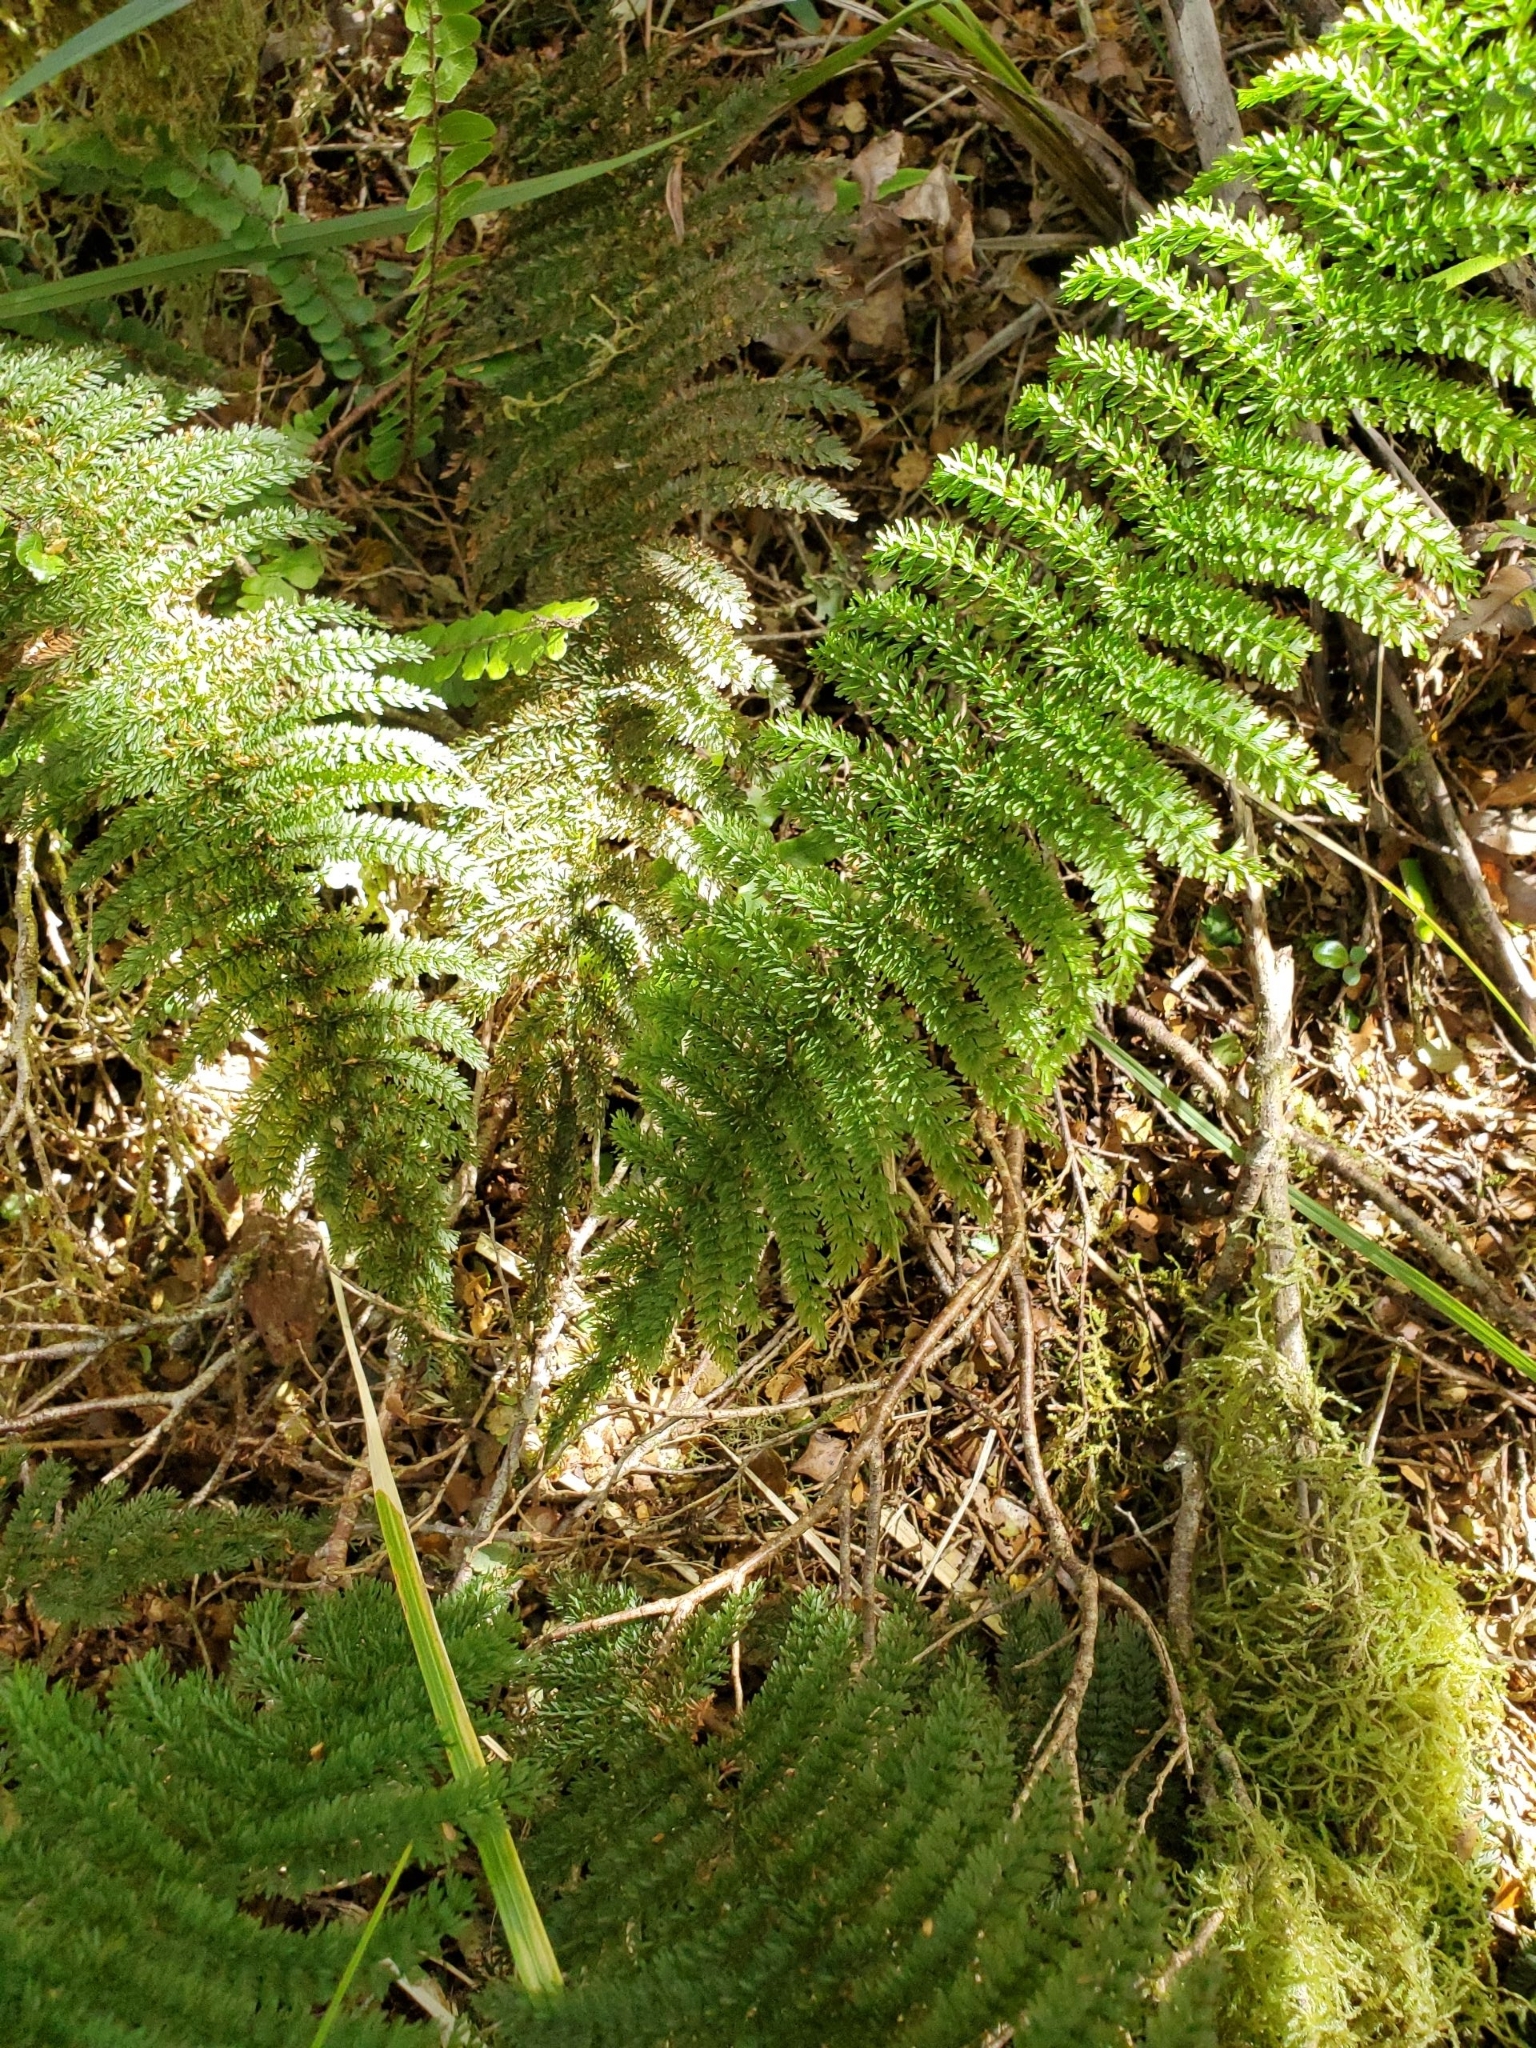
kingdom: Plantae
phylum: Tracheophyta
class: Polypodiopsida
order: Osmundales
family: Osmundaceae
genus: Leptopteris
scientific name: Leptopteris superba
